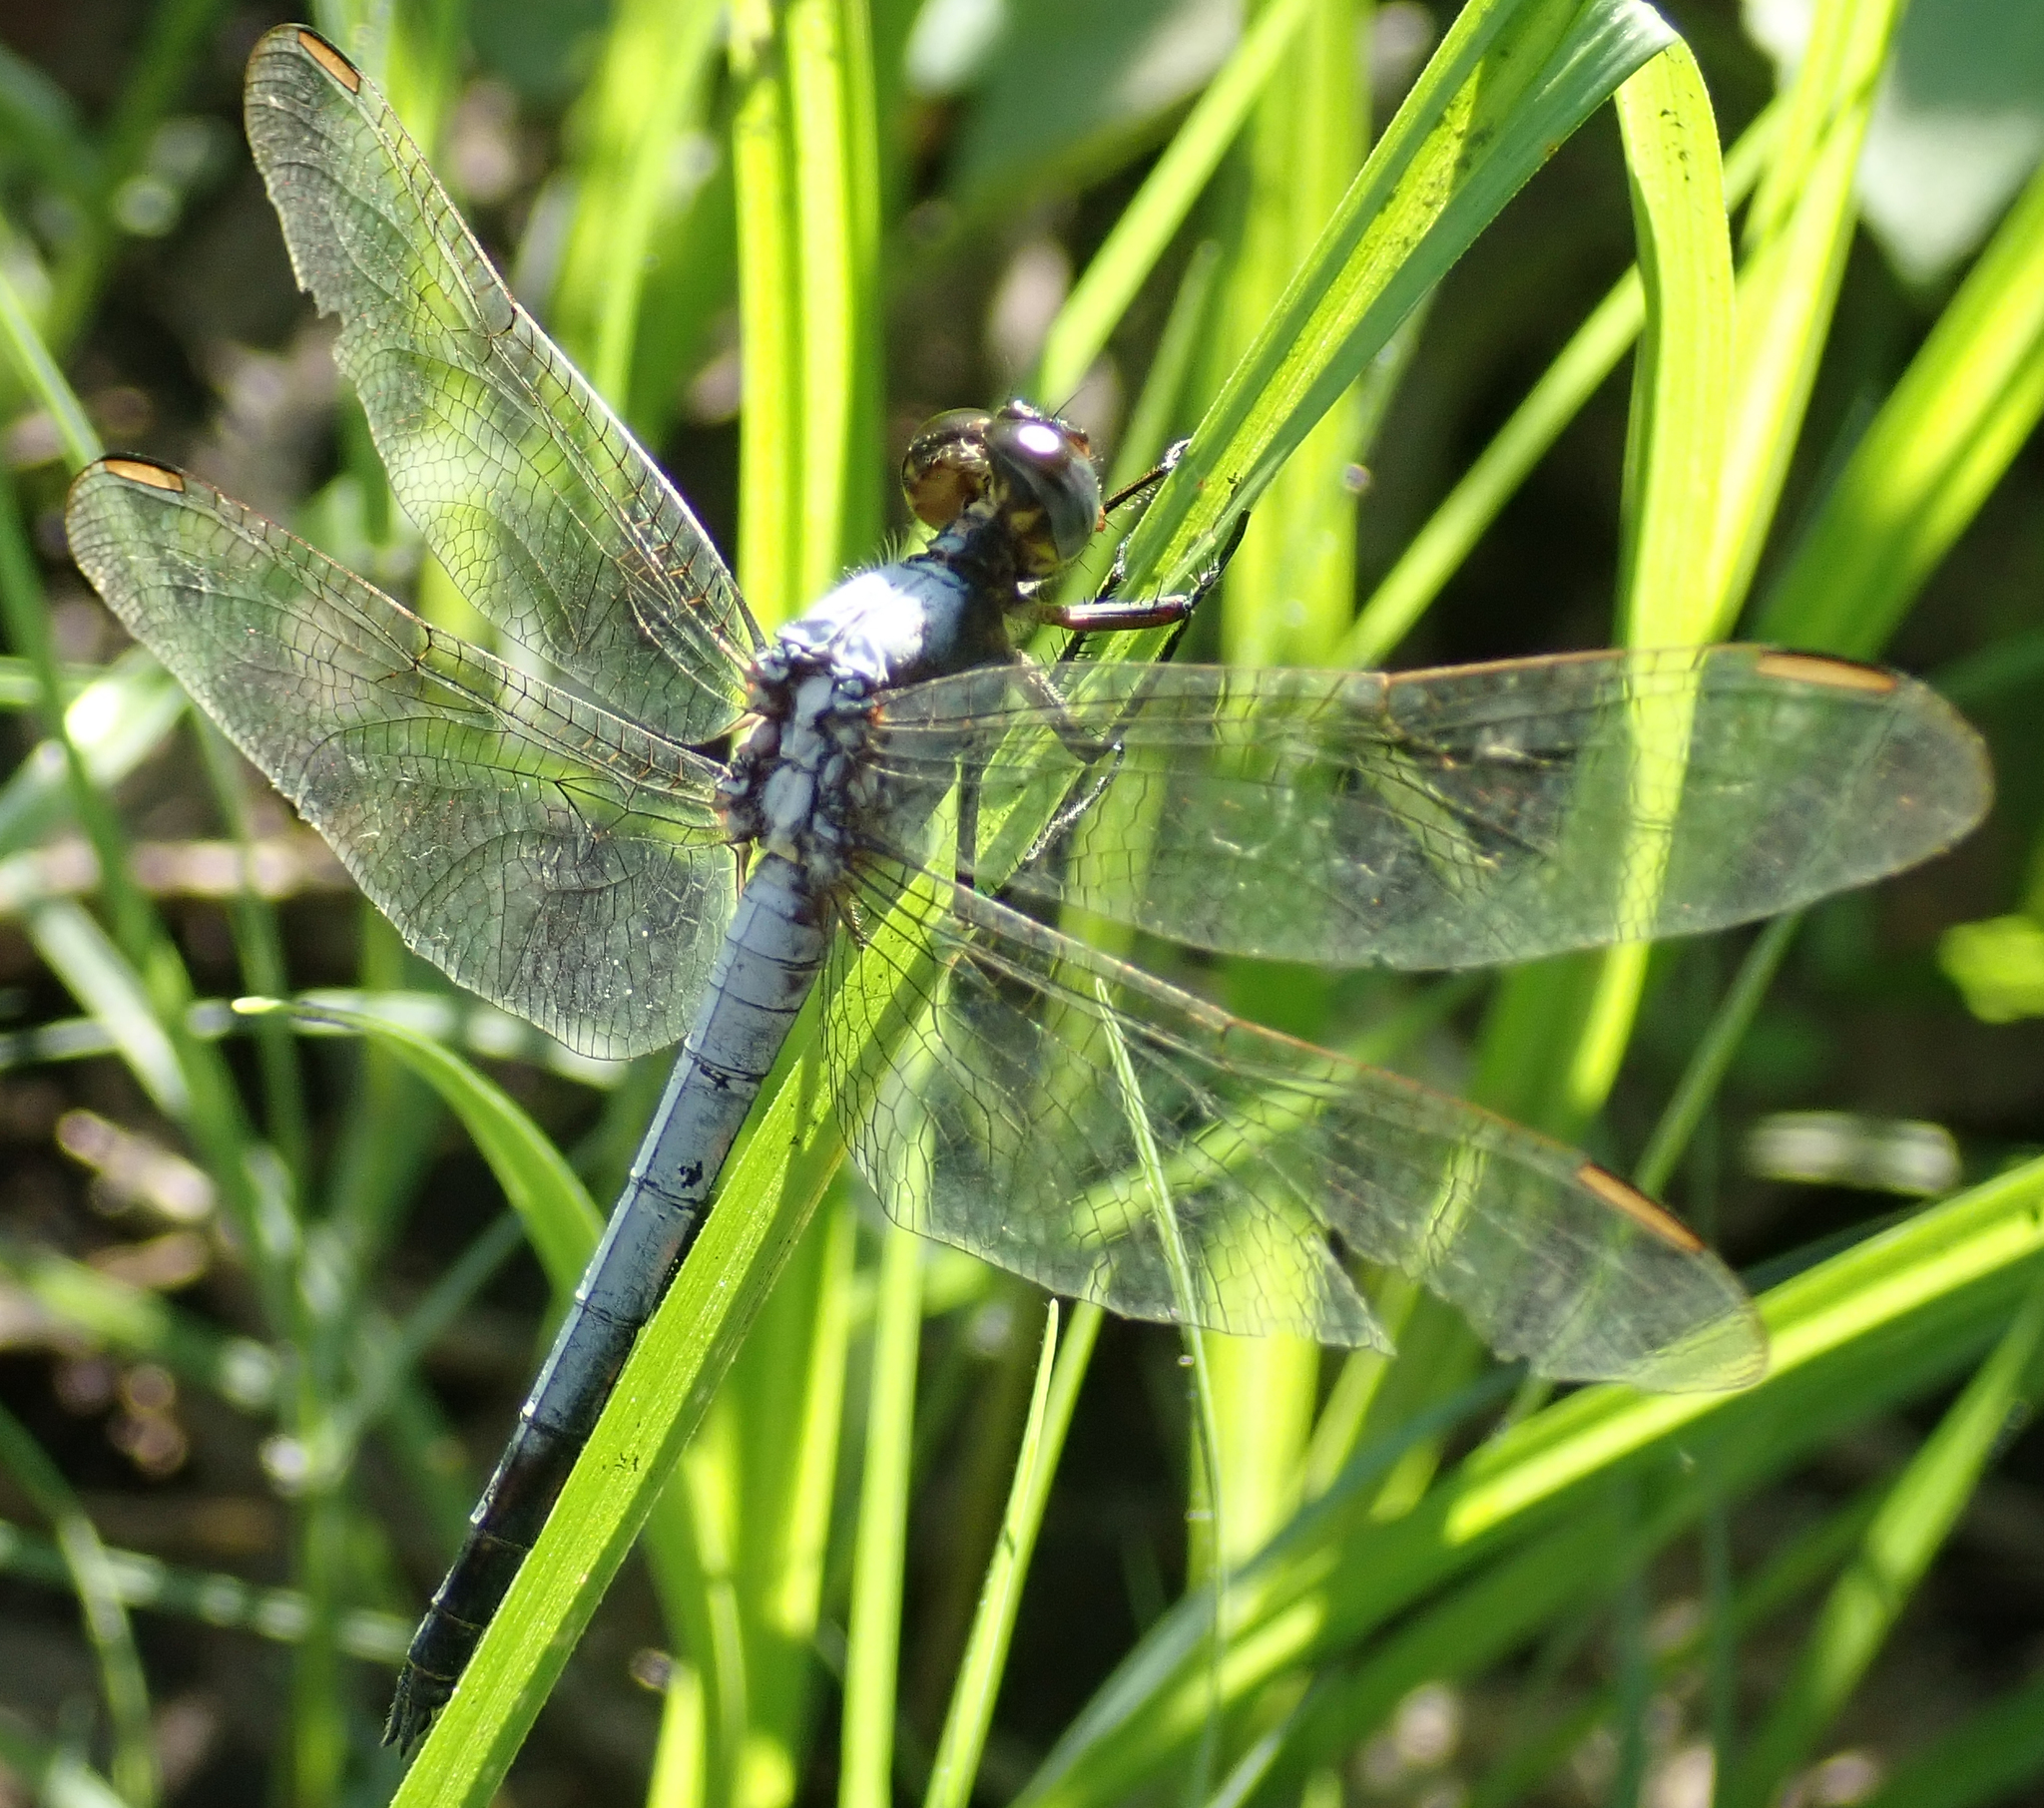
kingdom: Animalia
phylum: Arthropoda
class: Insecta
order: Odonata
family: Libellulidae
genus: Nesciothemis
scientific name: Nesciothemis farinosa
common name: Eastern blacktail
